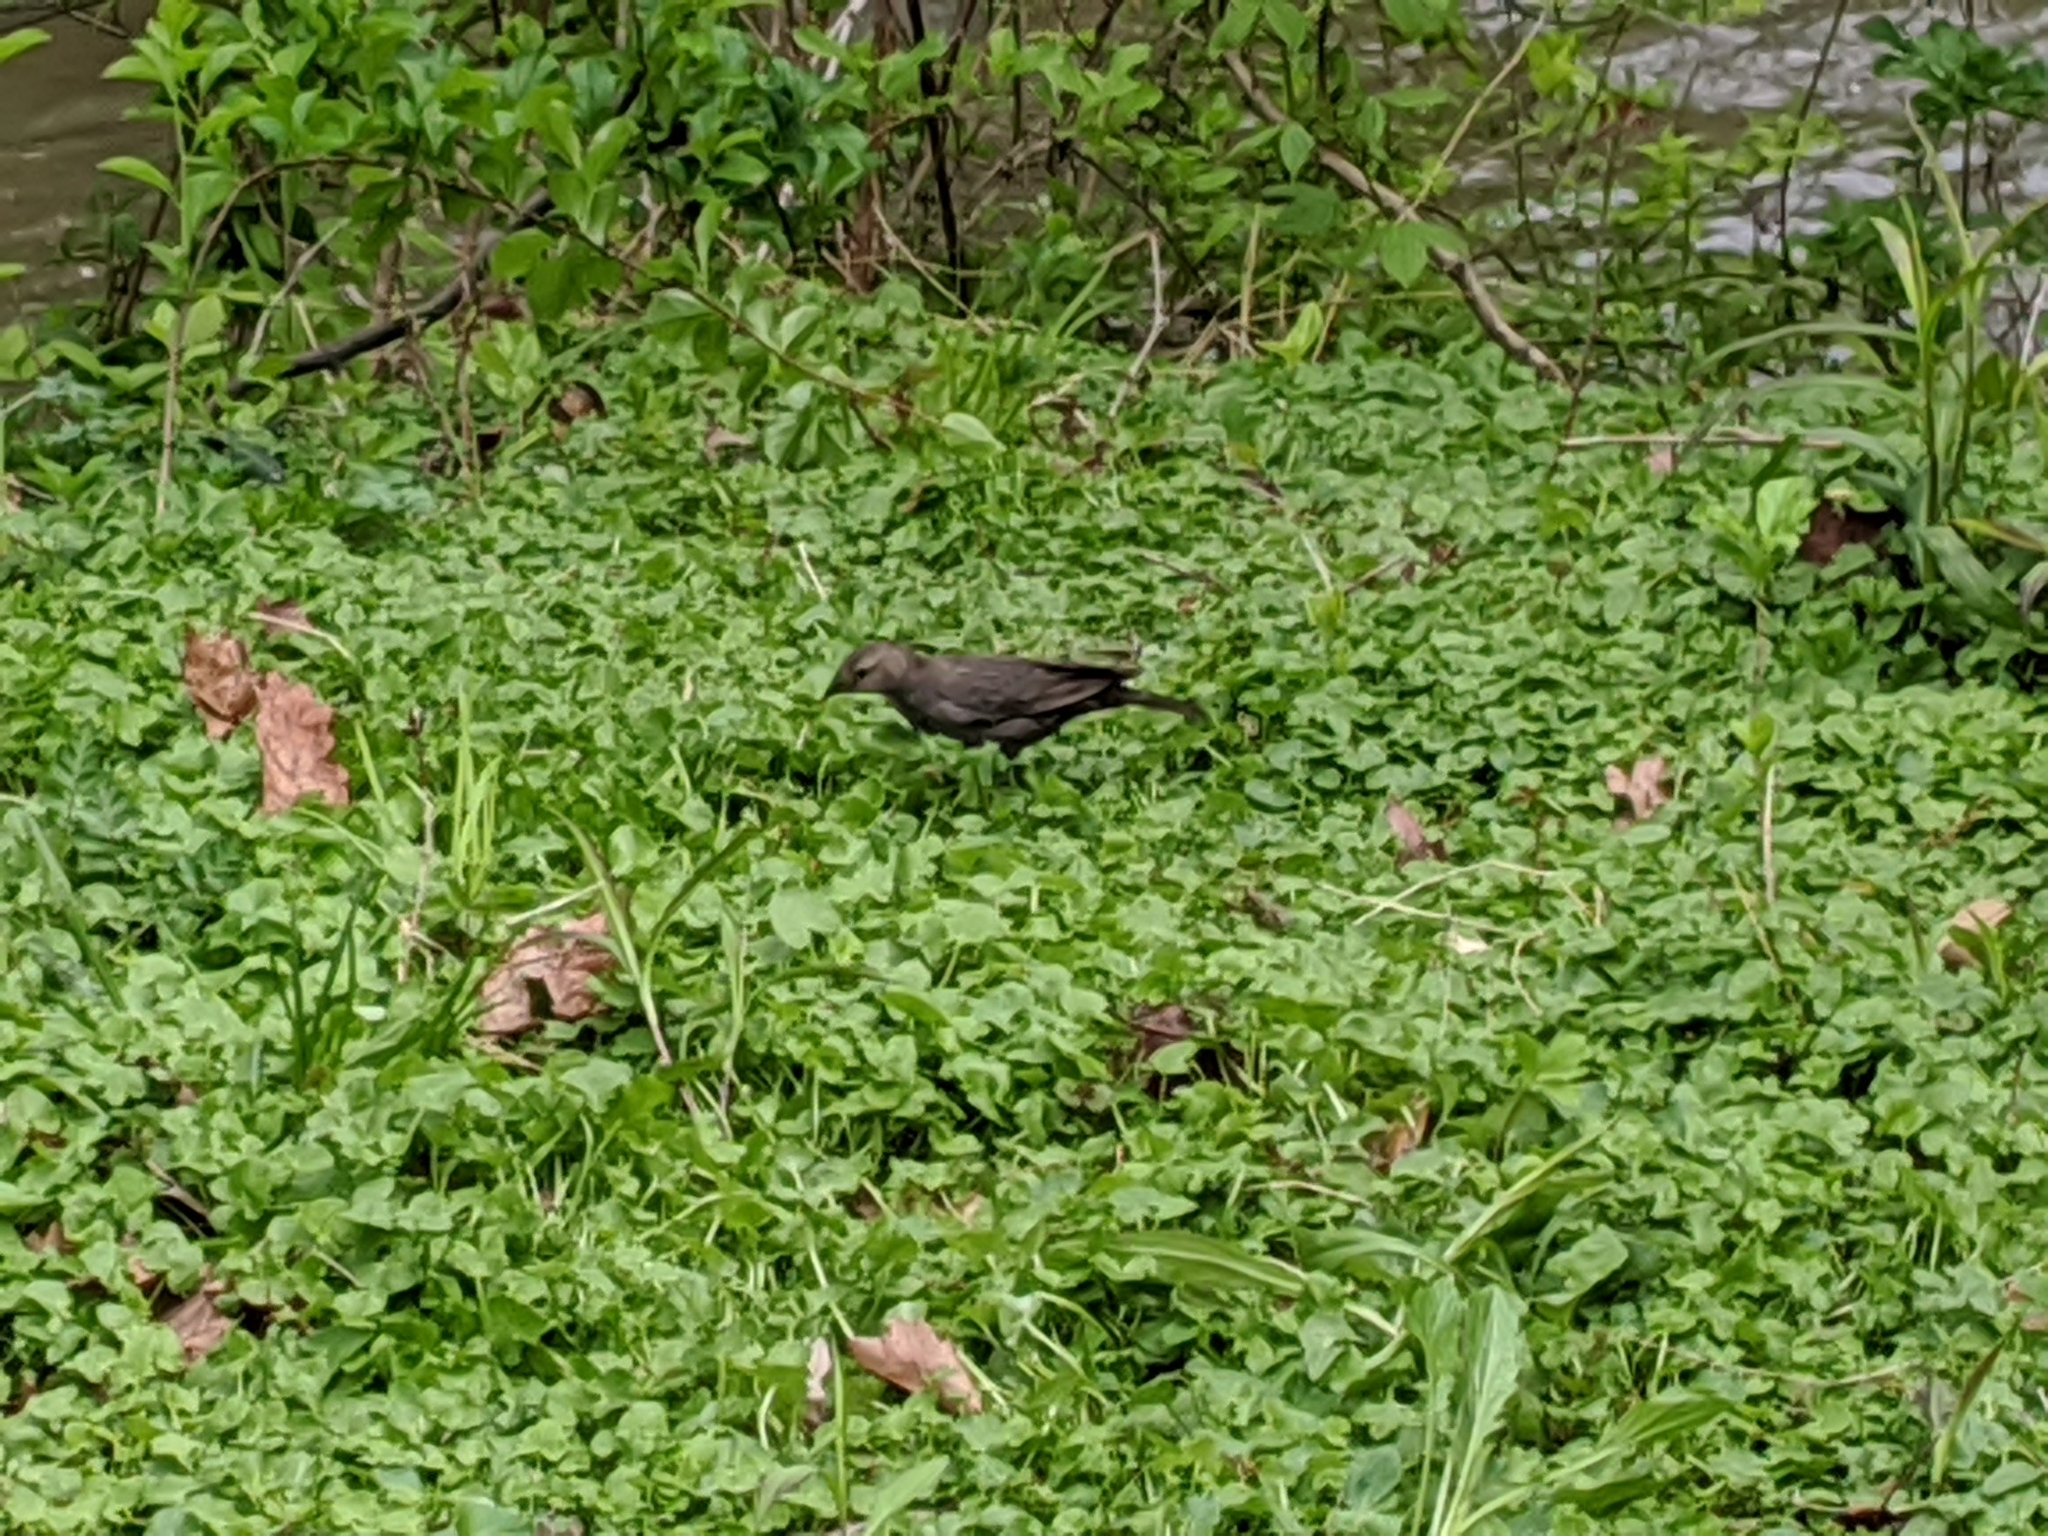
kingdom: Animalia
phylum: Chordata
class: Aves
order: Passeriformes
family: Icteridae
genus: Molothrus
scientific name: Molothrus ater
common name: Brown-headed cowbird
